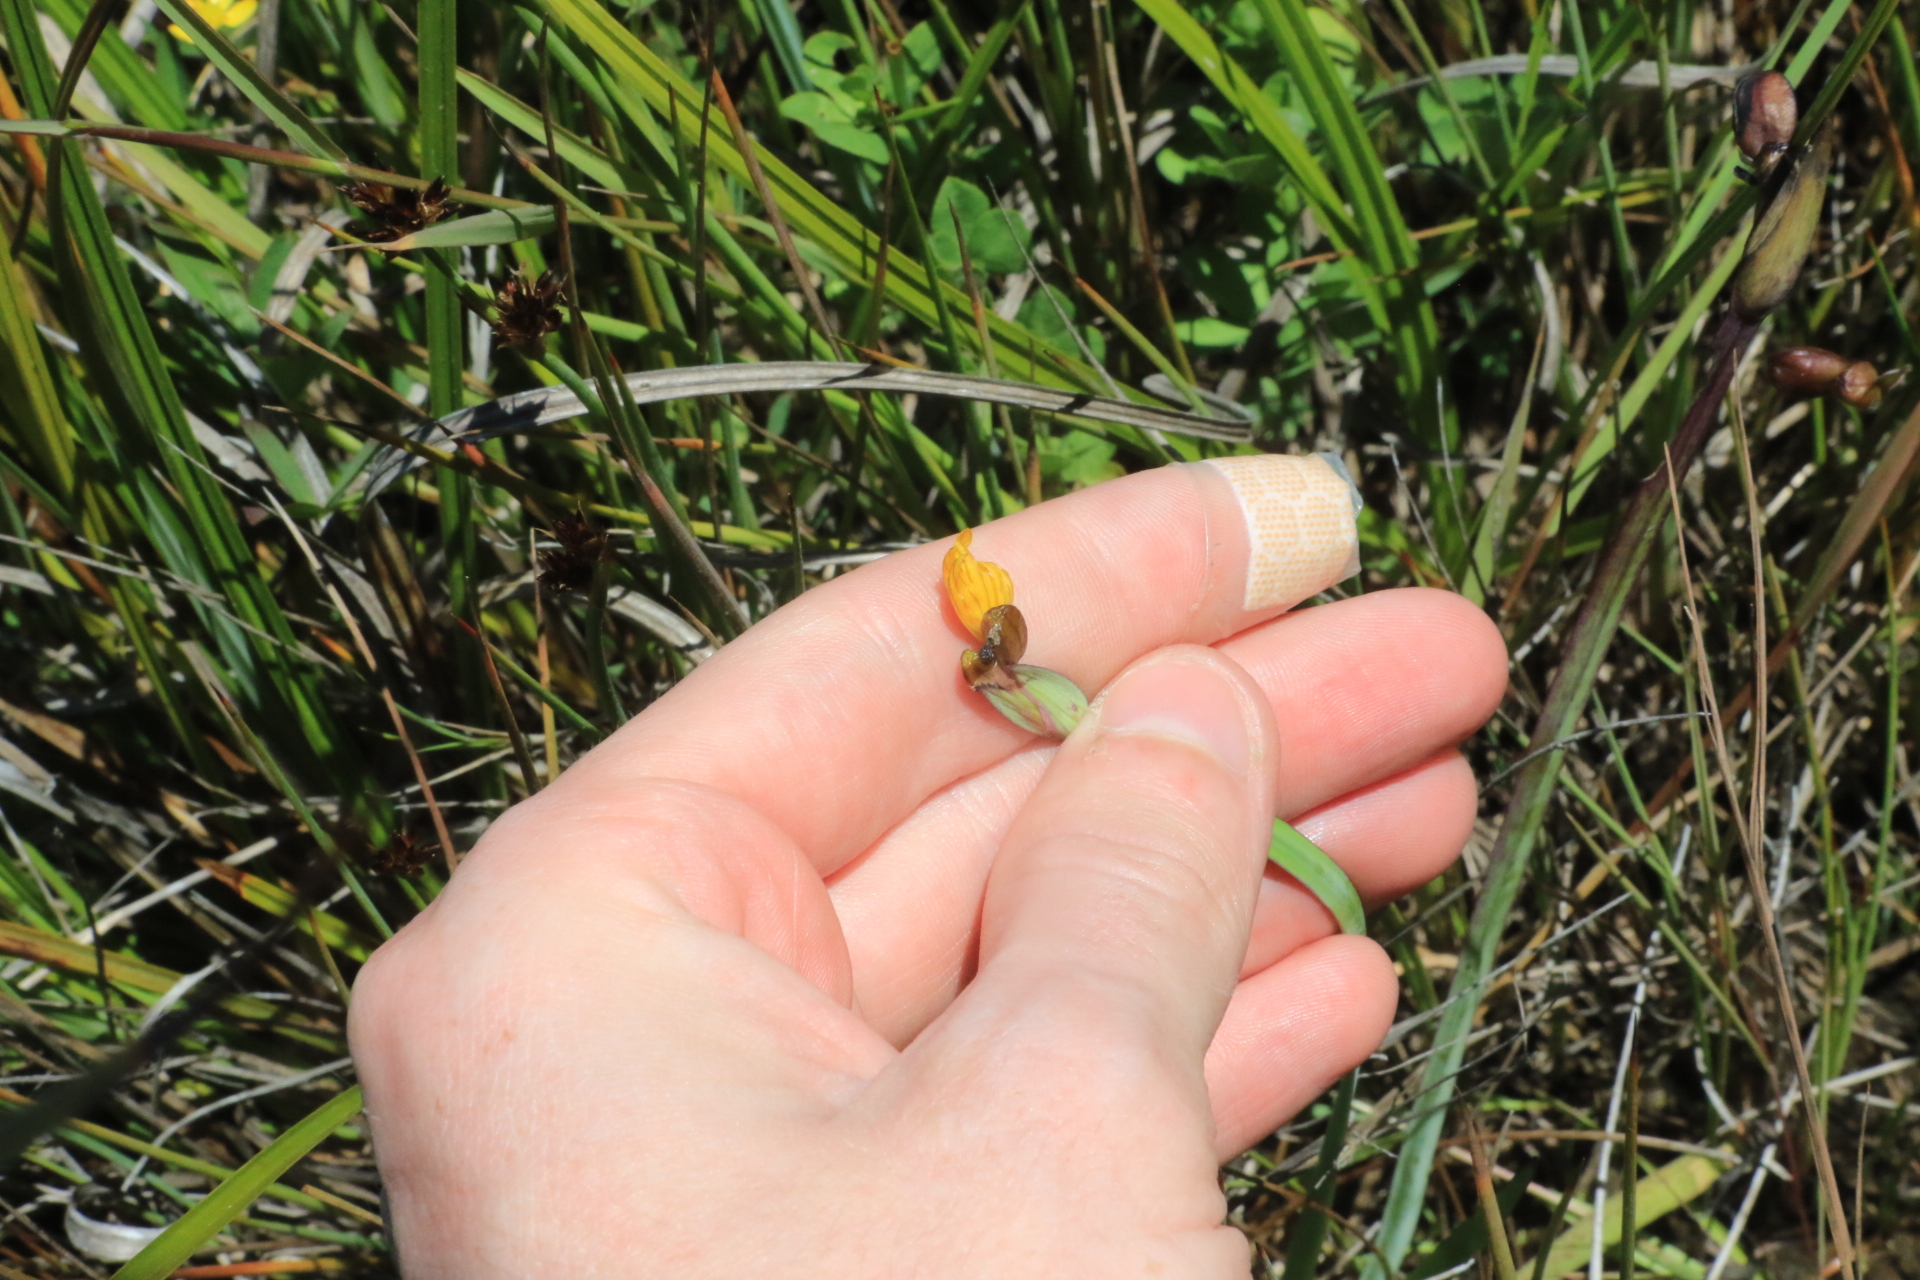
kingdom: Plantae
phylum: Tracheophyta
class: Liliopsida
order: Asparagales
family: Iridaceae
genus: Sisyrinchium
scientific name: Sisyrinchium californicum
